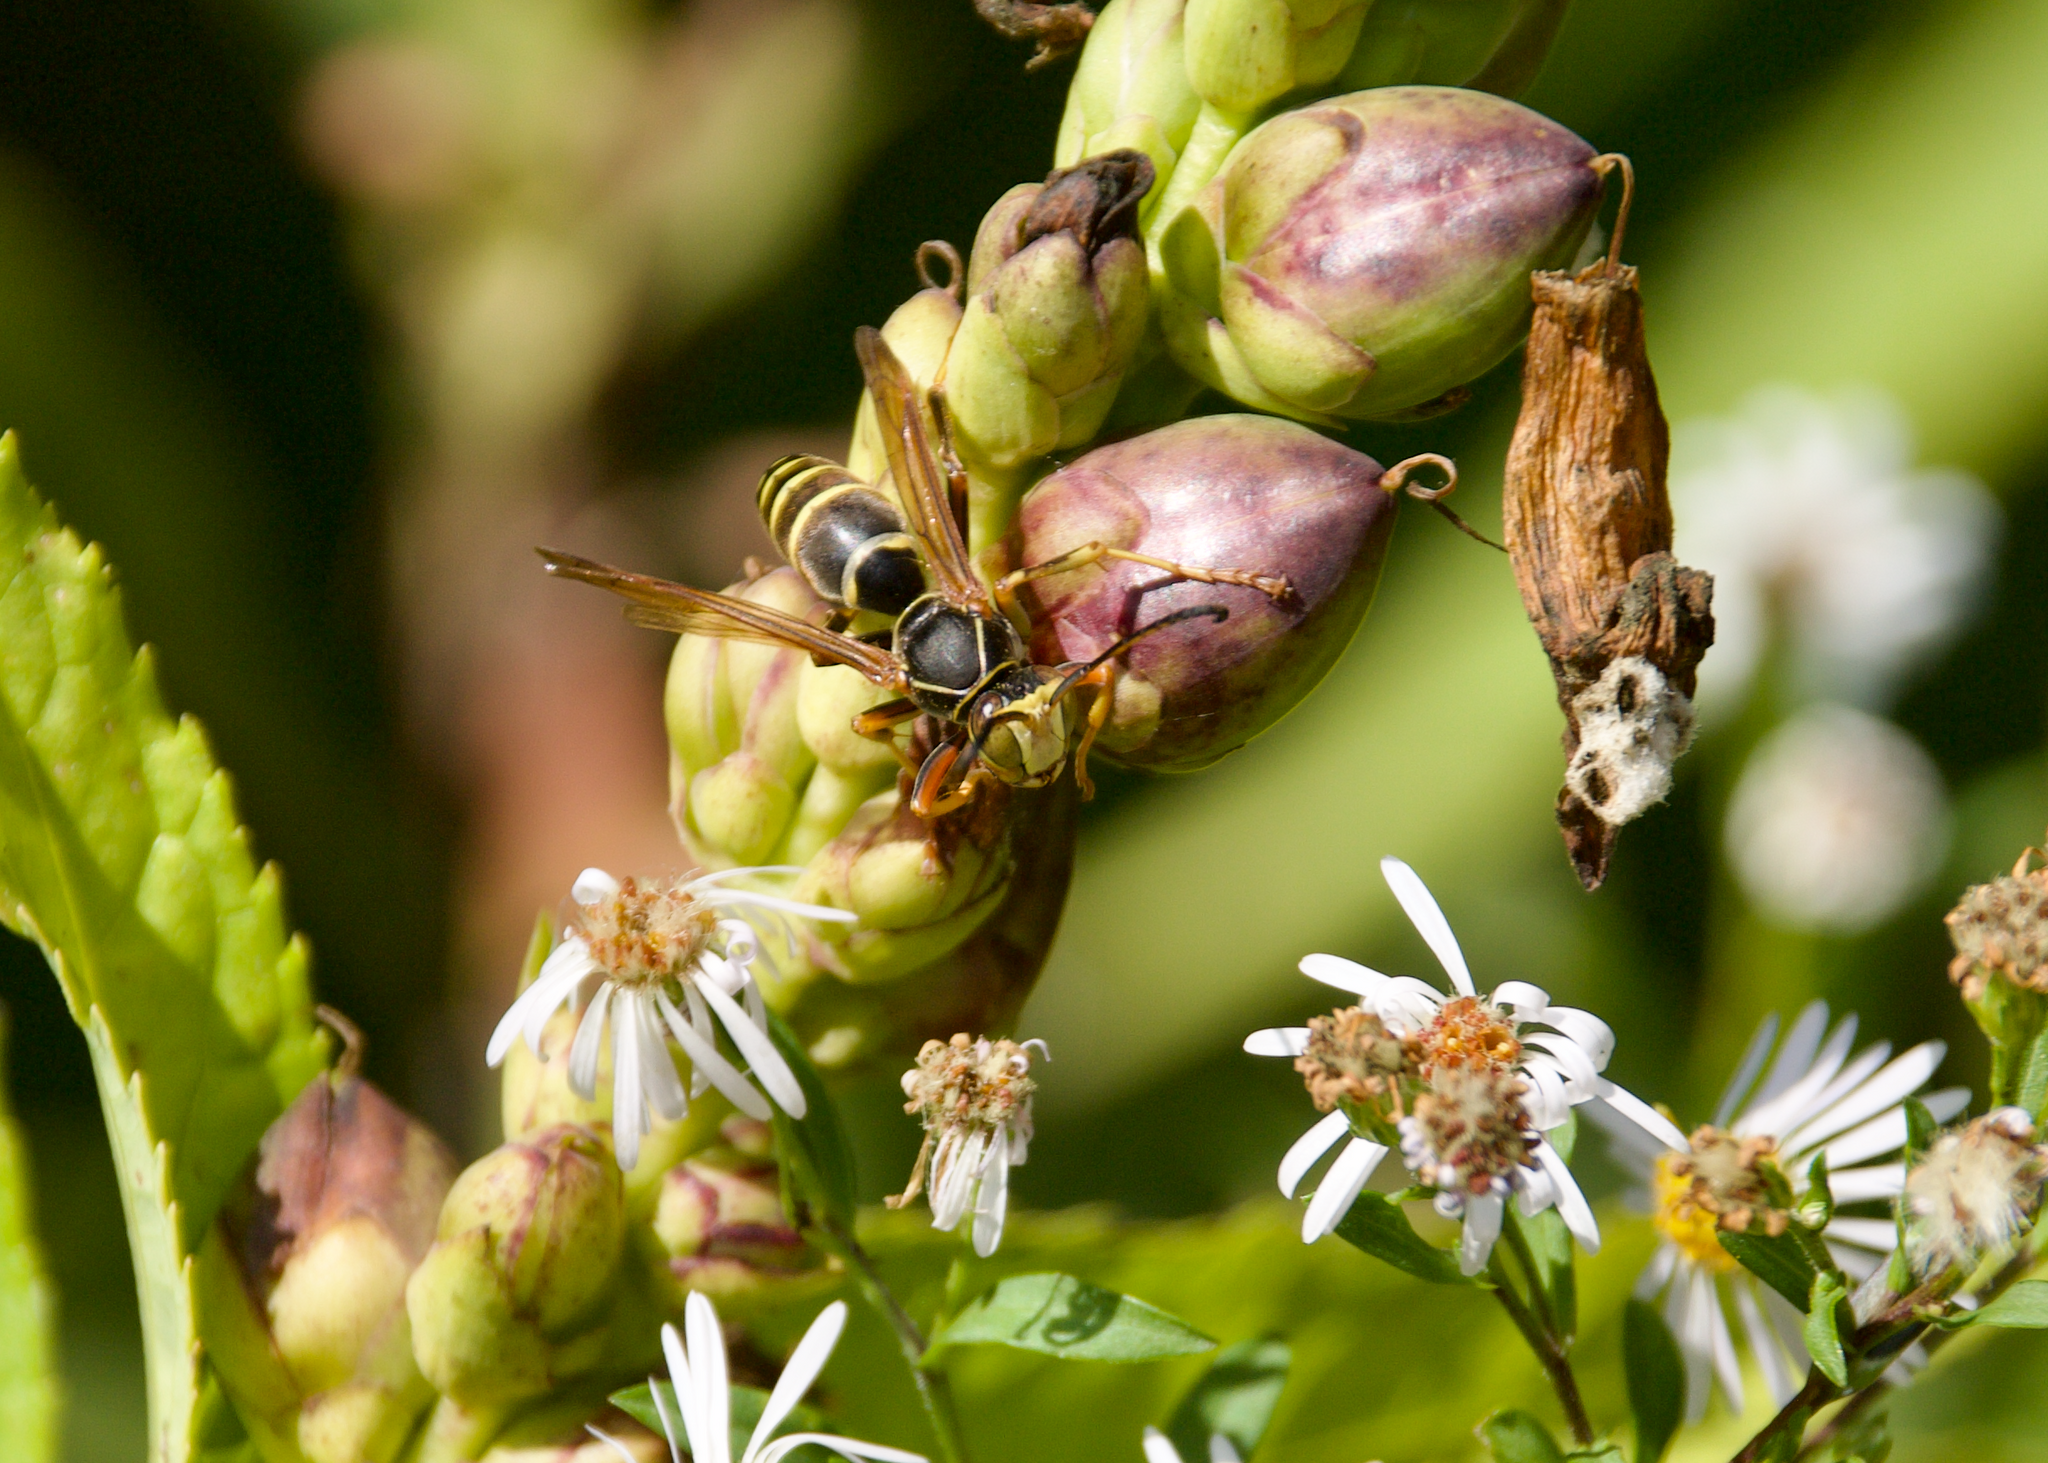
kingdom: Animalia
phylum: Arthropoda
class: Insecta
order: Hymenoptera
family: Eumenidae
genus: Polistes
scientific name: Polistes fuscatus
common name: Dark paper wasp
